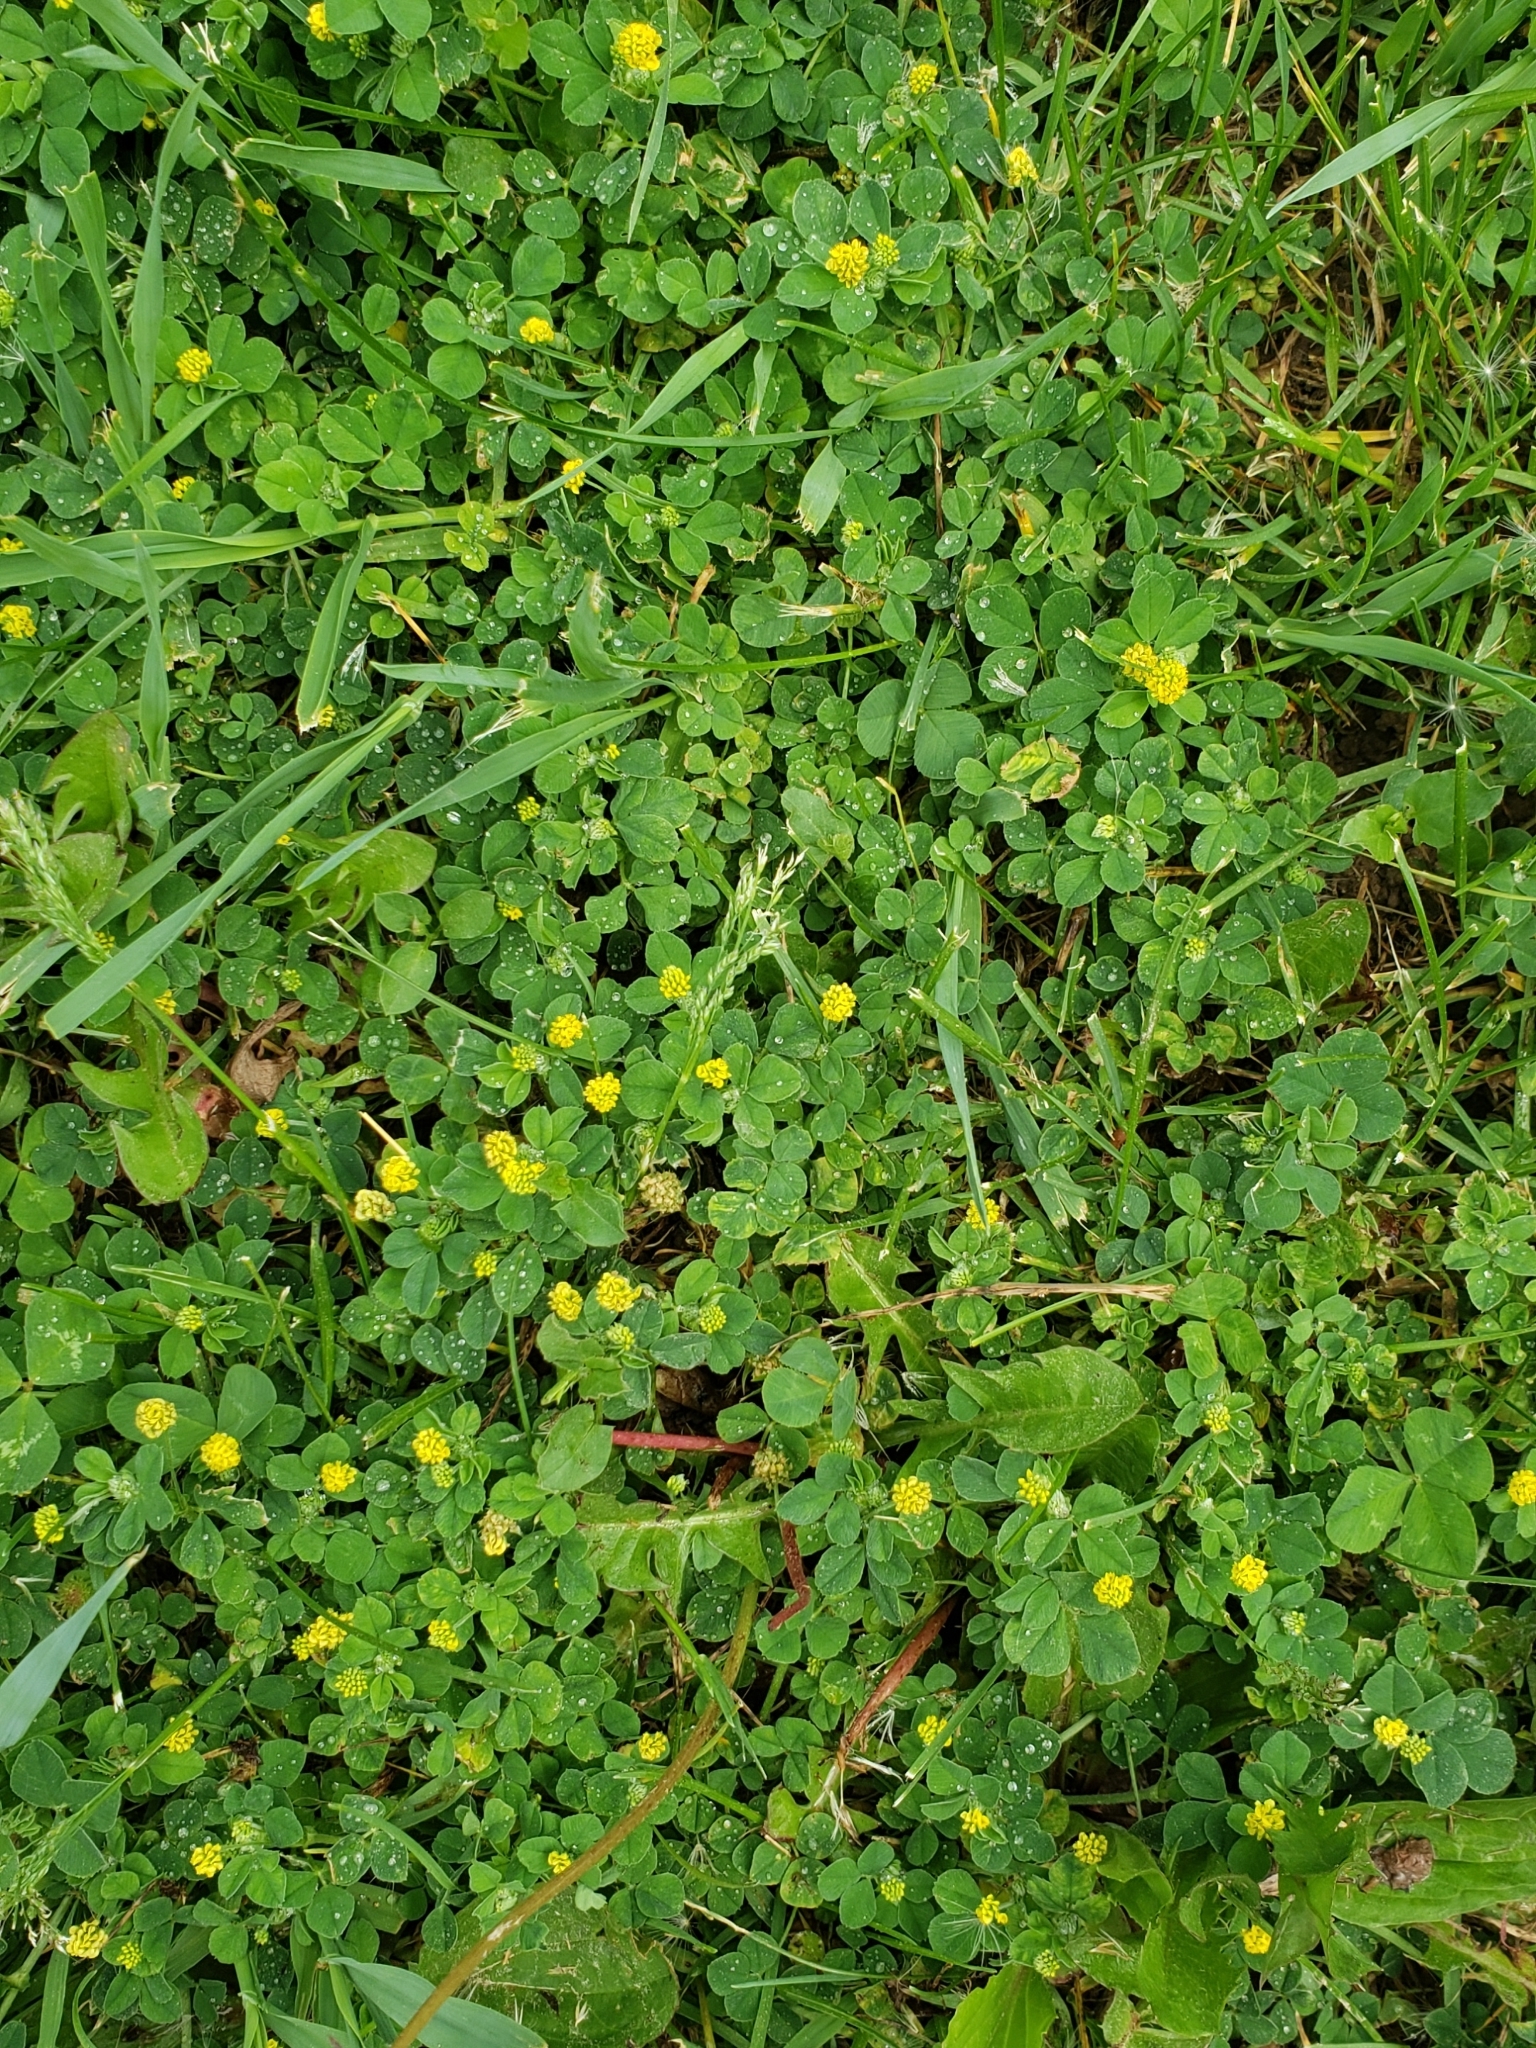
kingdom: Plantae
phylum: Tracheophyta
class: Magnoliopsida
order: Fabales
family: Fabaceae
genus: Medicago
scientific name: Medicago lupulina
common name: Black medick
